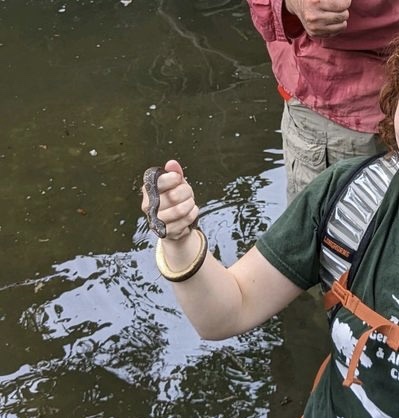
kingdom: Animalia
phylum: Chordata
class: Squamata
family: Colubridae
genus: Nerodia
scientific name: Nerodia erythrogaster
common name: Plainbelly water snake
